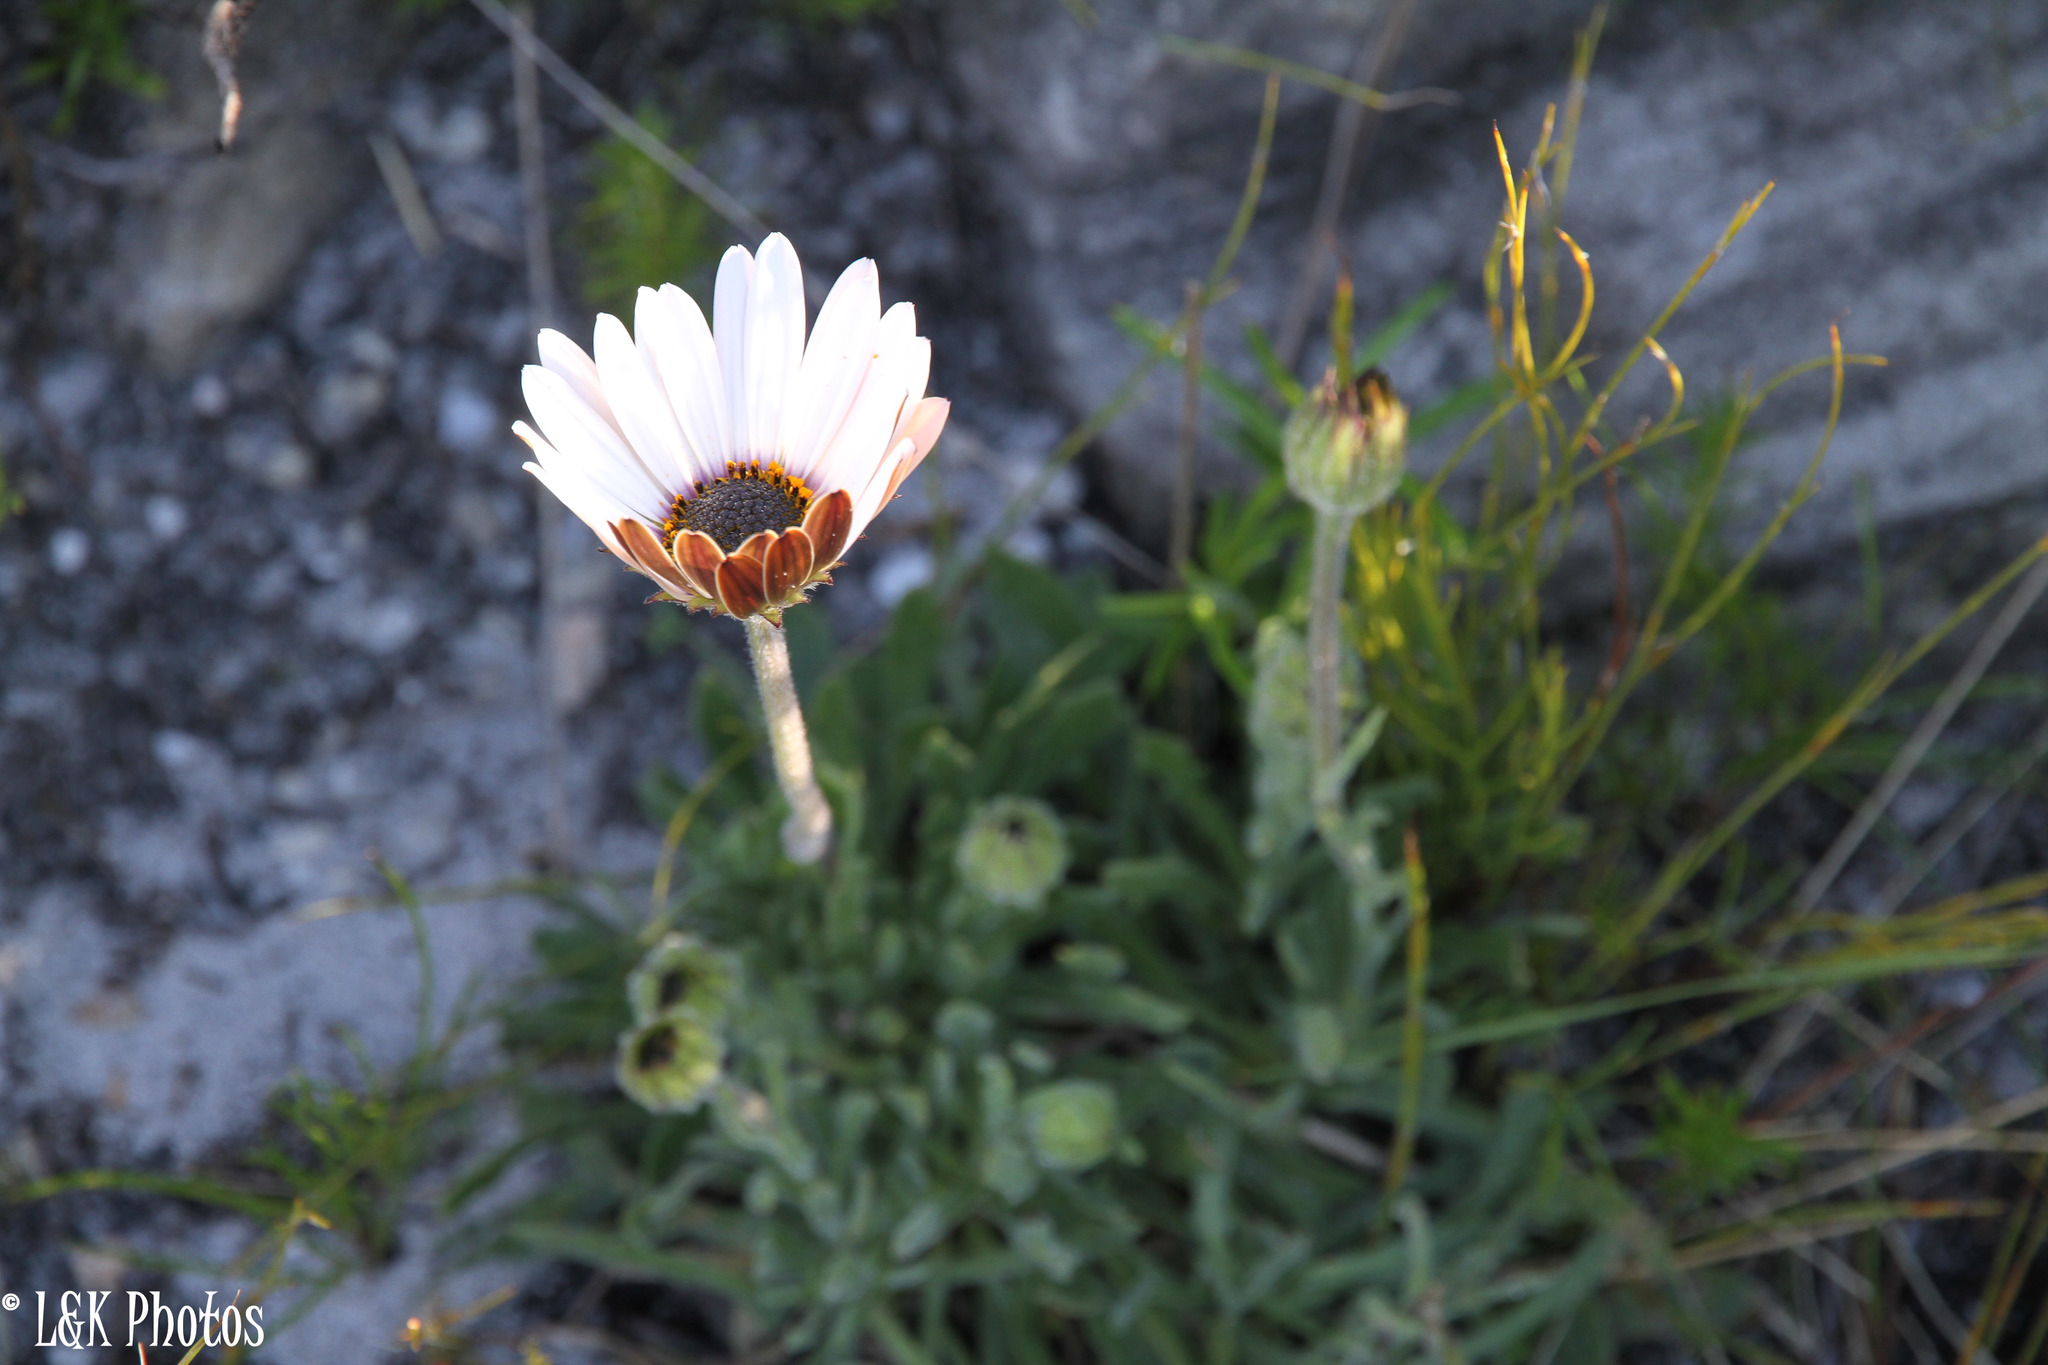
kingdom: Plantae
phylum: Tracheophyta
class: Magnoliopsida
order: Asterales
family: Asteraceae
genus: Dimorphotheca
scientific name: Dimorphotheca nudicaulis
